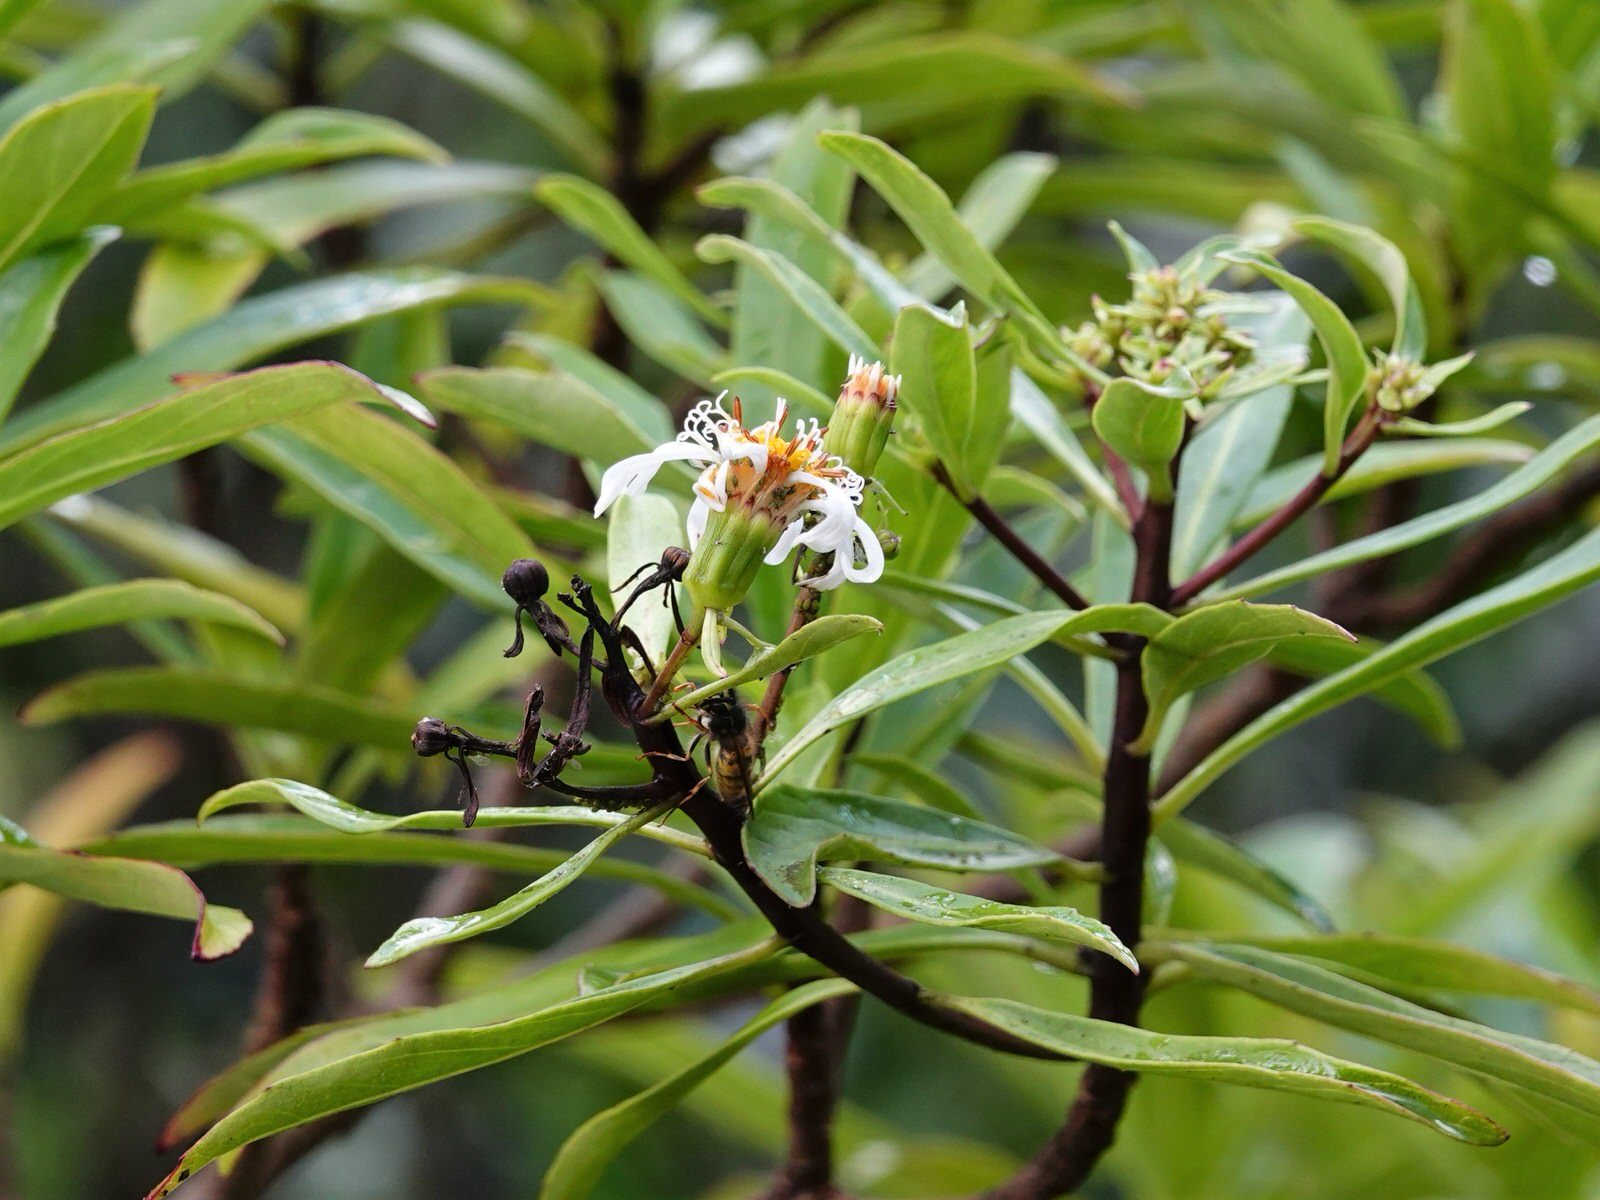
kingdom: Plantae
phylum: Tracheophyta
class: Magnoliopsida
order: Asterales
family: Asteraceae
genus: Brachyglottis
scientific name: Brachyglottis kirkii
